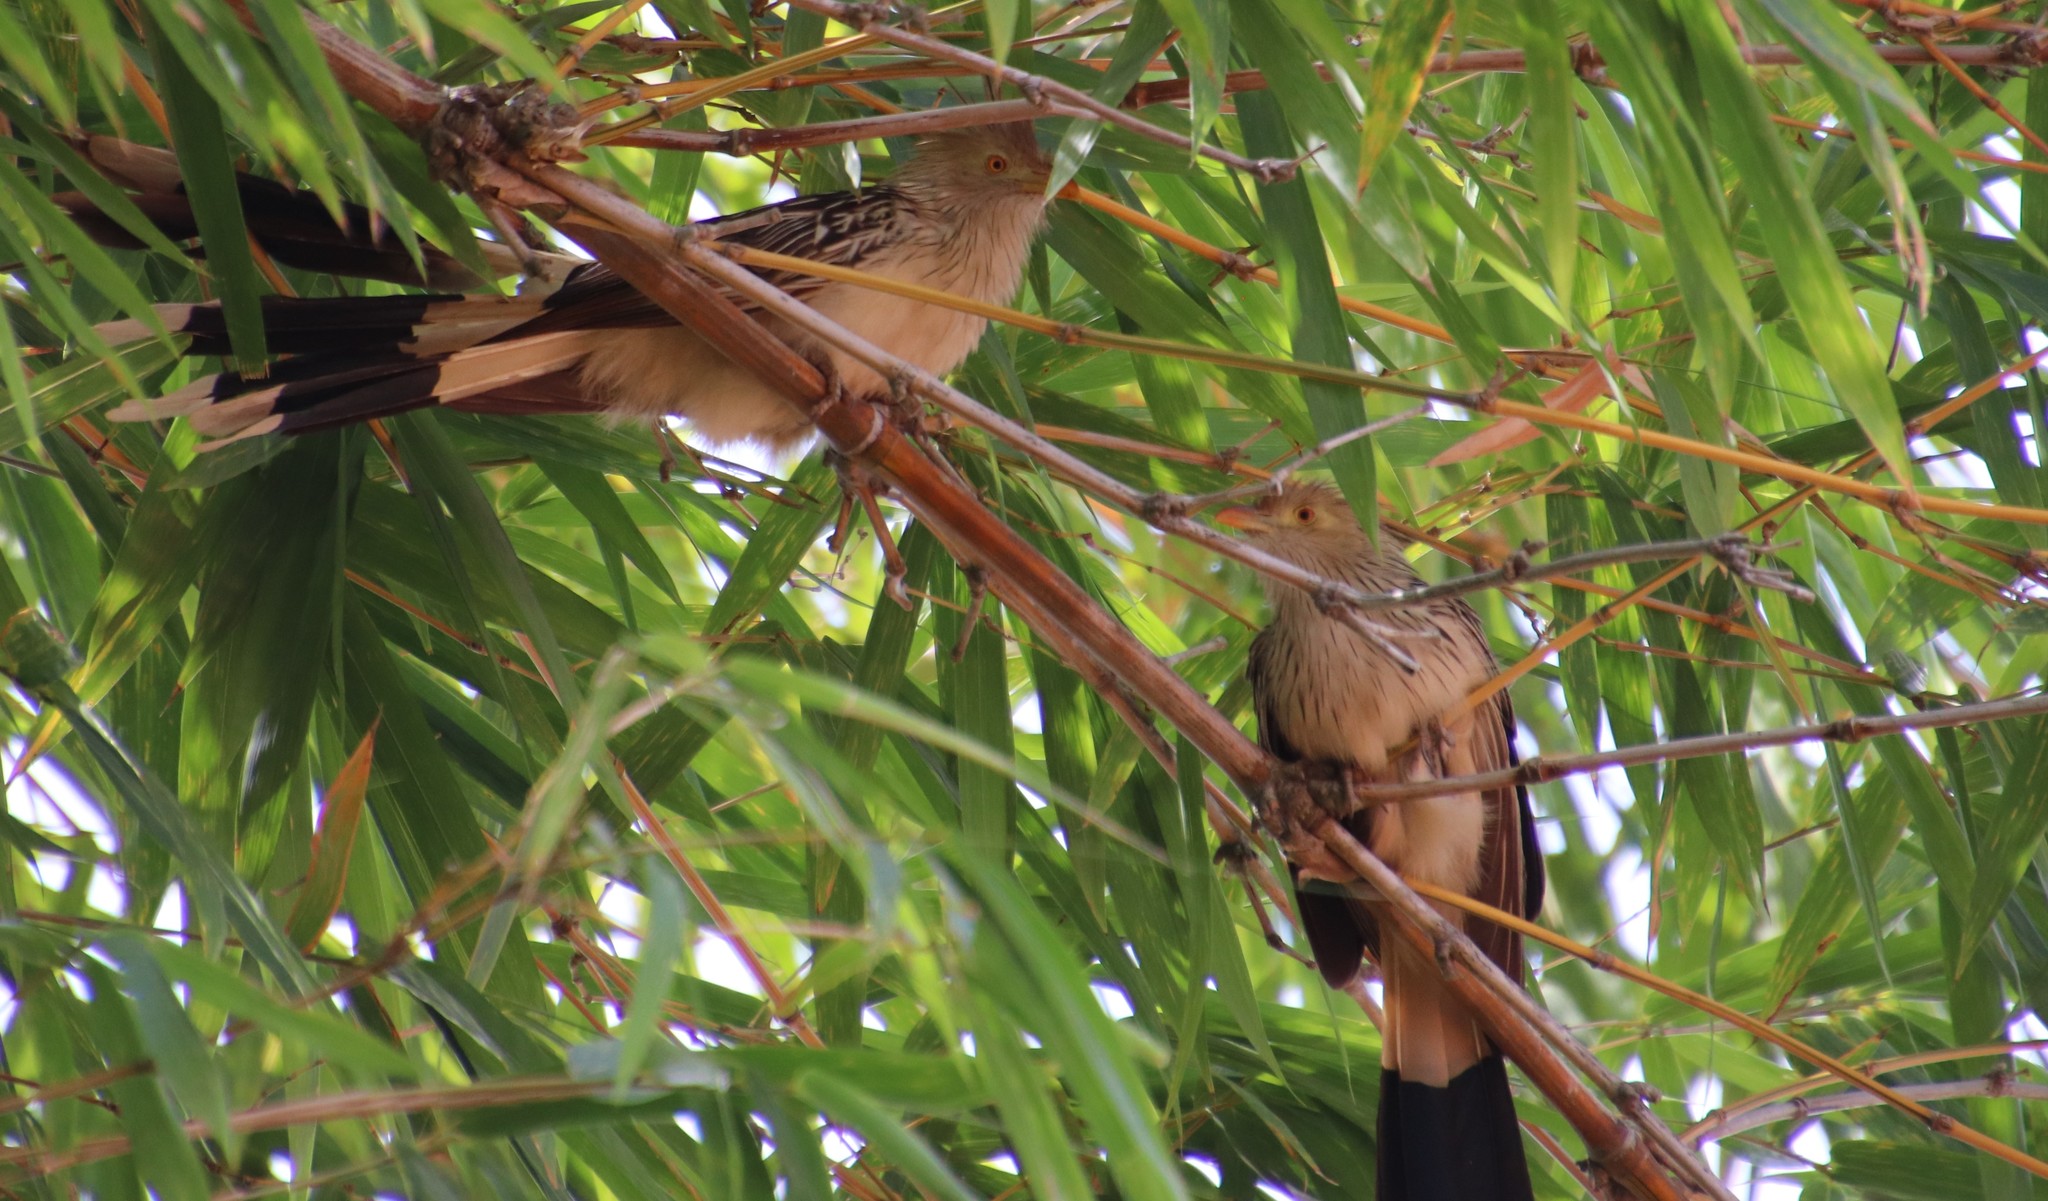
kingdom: Animalia
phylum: Chordata
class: Aves
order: Cuculiformes
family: Cuculidae
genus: Guira
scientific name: Guira guira
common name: Guira cuckoo
